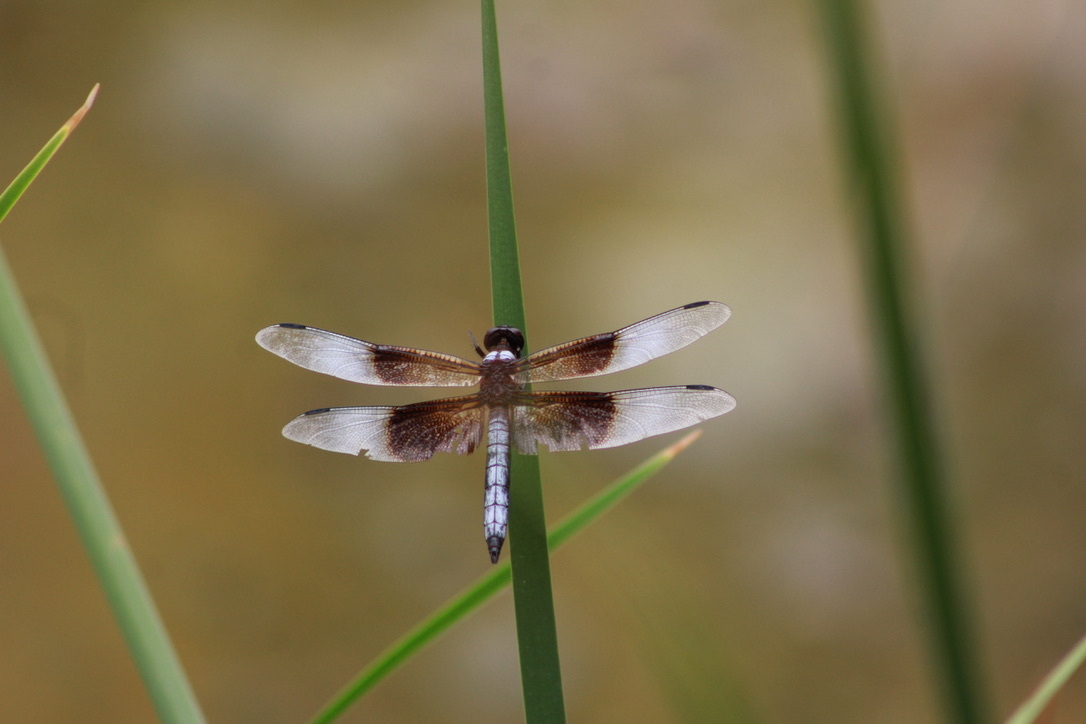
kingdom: Animalia
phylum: Arthropoda
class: Insecta
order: Odonata
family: Libellulidae
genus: Libellula
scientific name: Libellula luctuosa
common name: Widow skimmer
